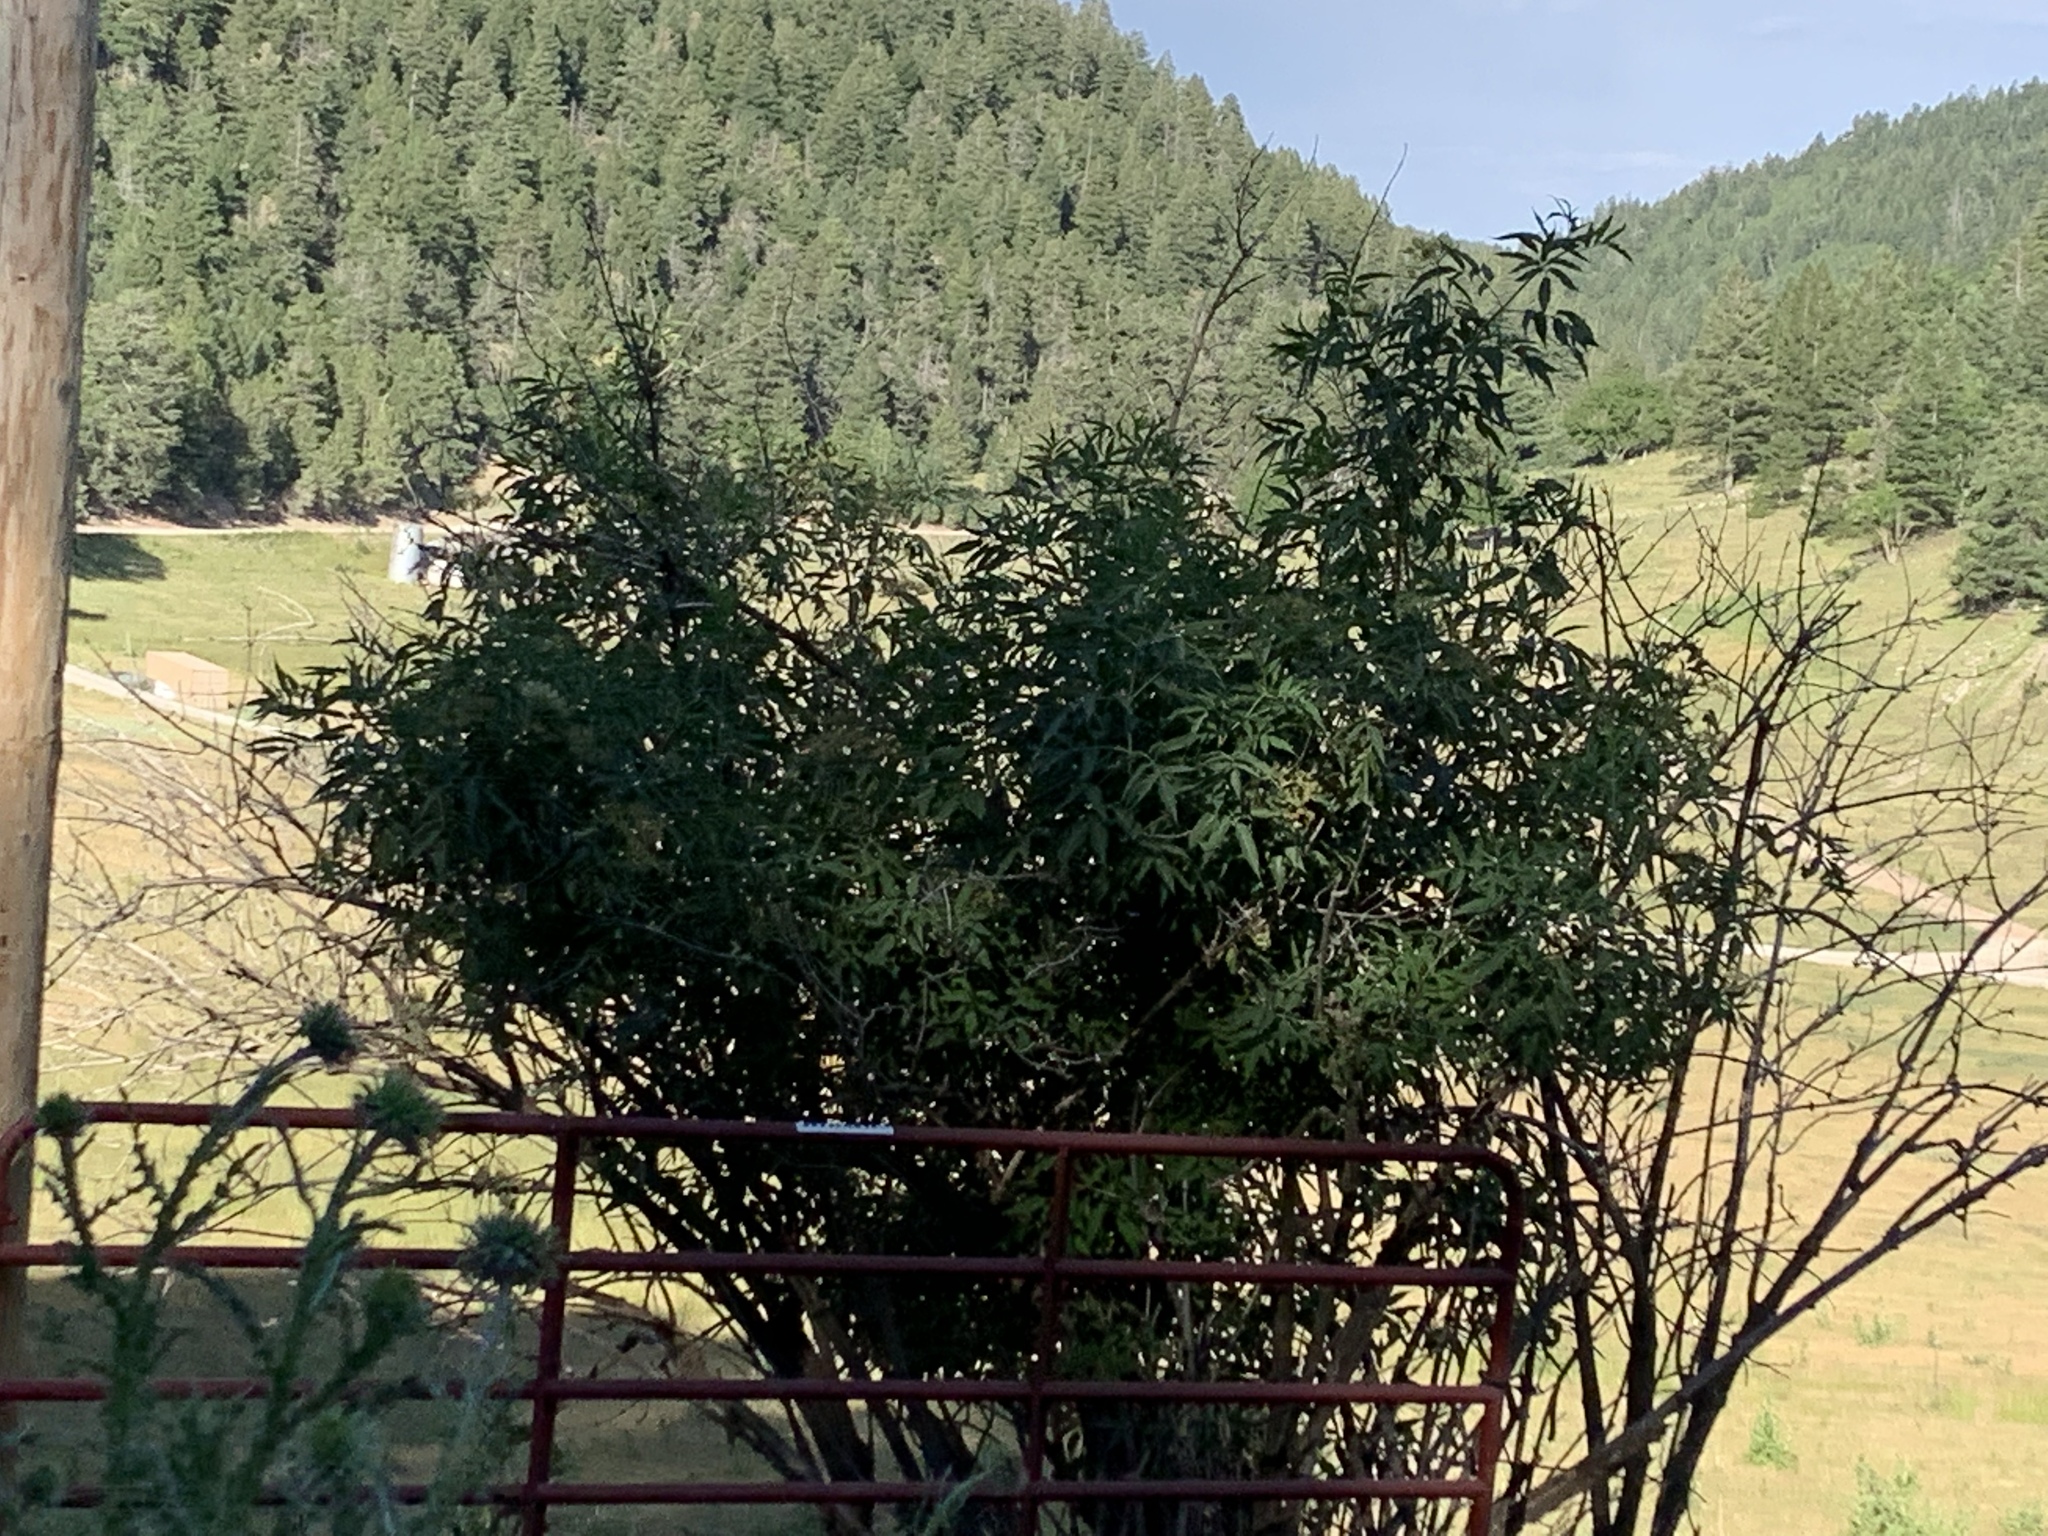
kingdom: Plantae
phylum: Tracheophyta
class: Magnoliopsida
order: Dipsacales
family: Viburnaceae
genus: Sambucus
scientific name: Sambucus cerulea
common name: Blue elder
